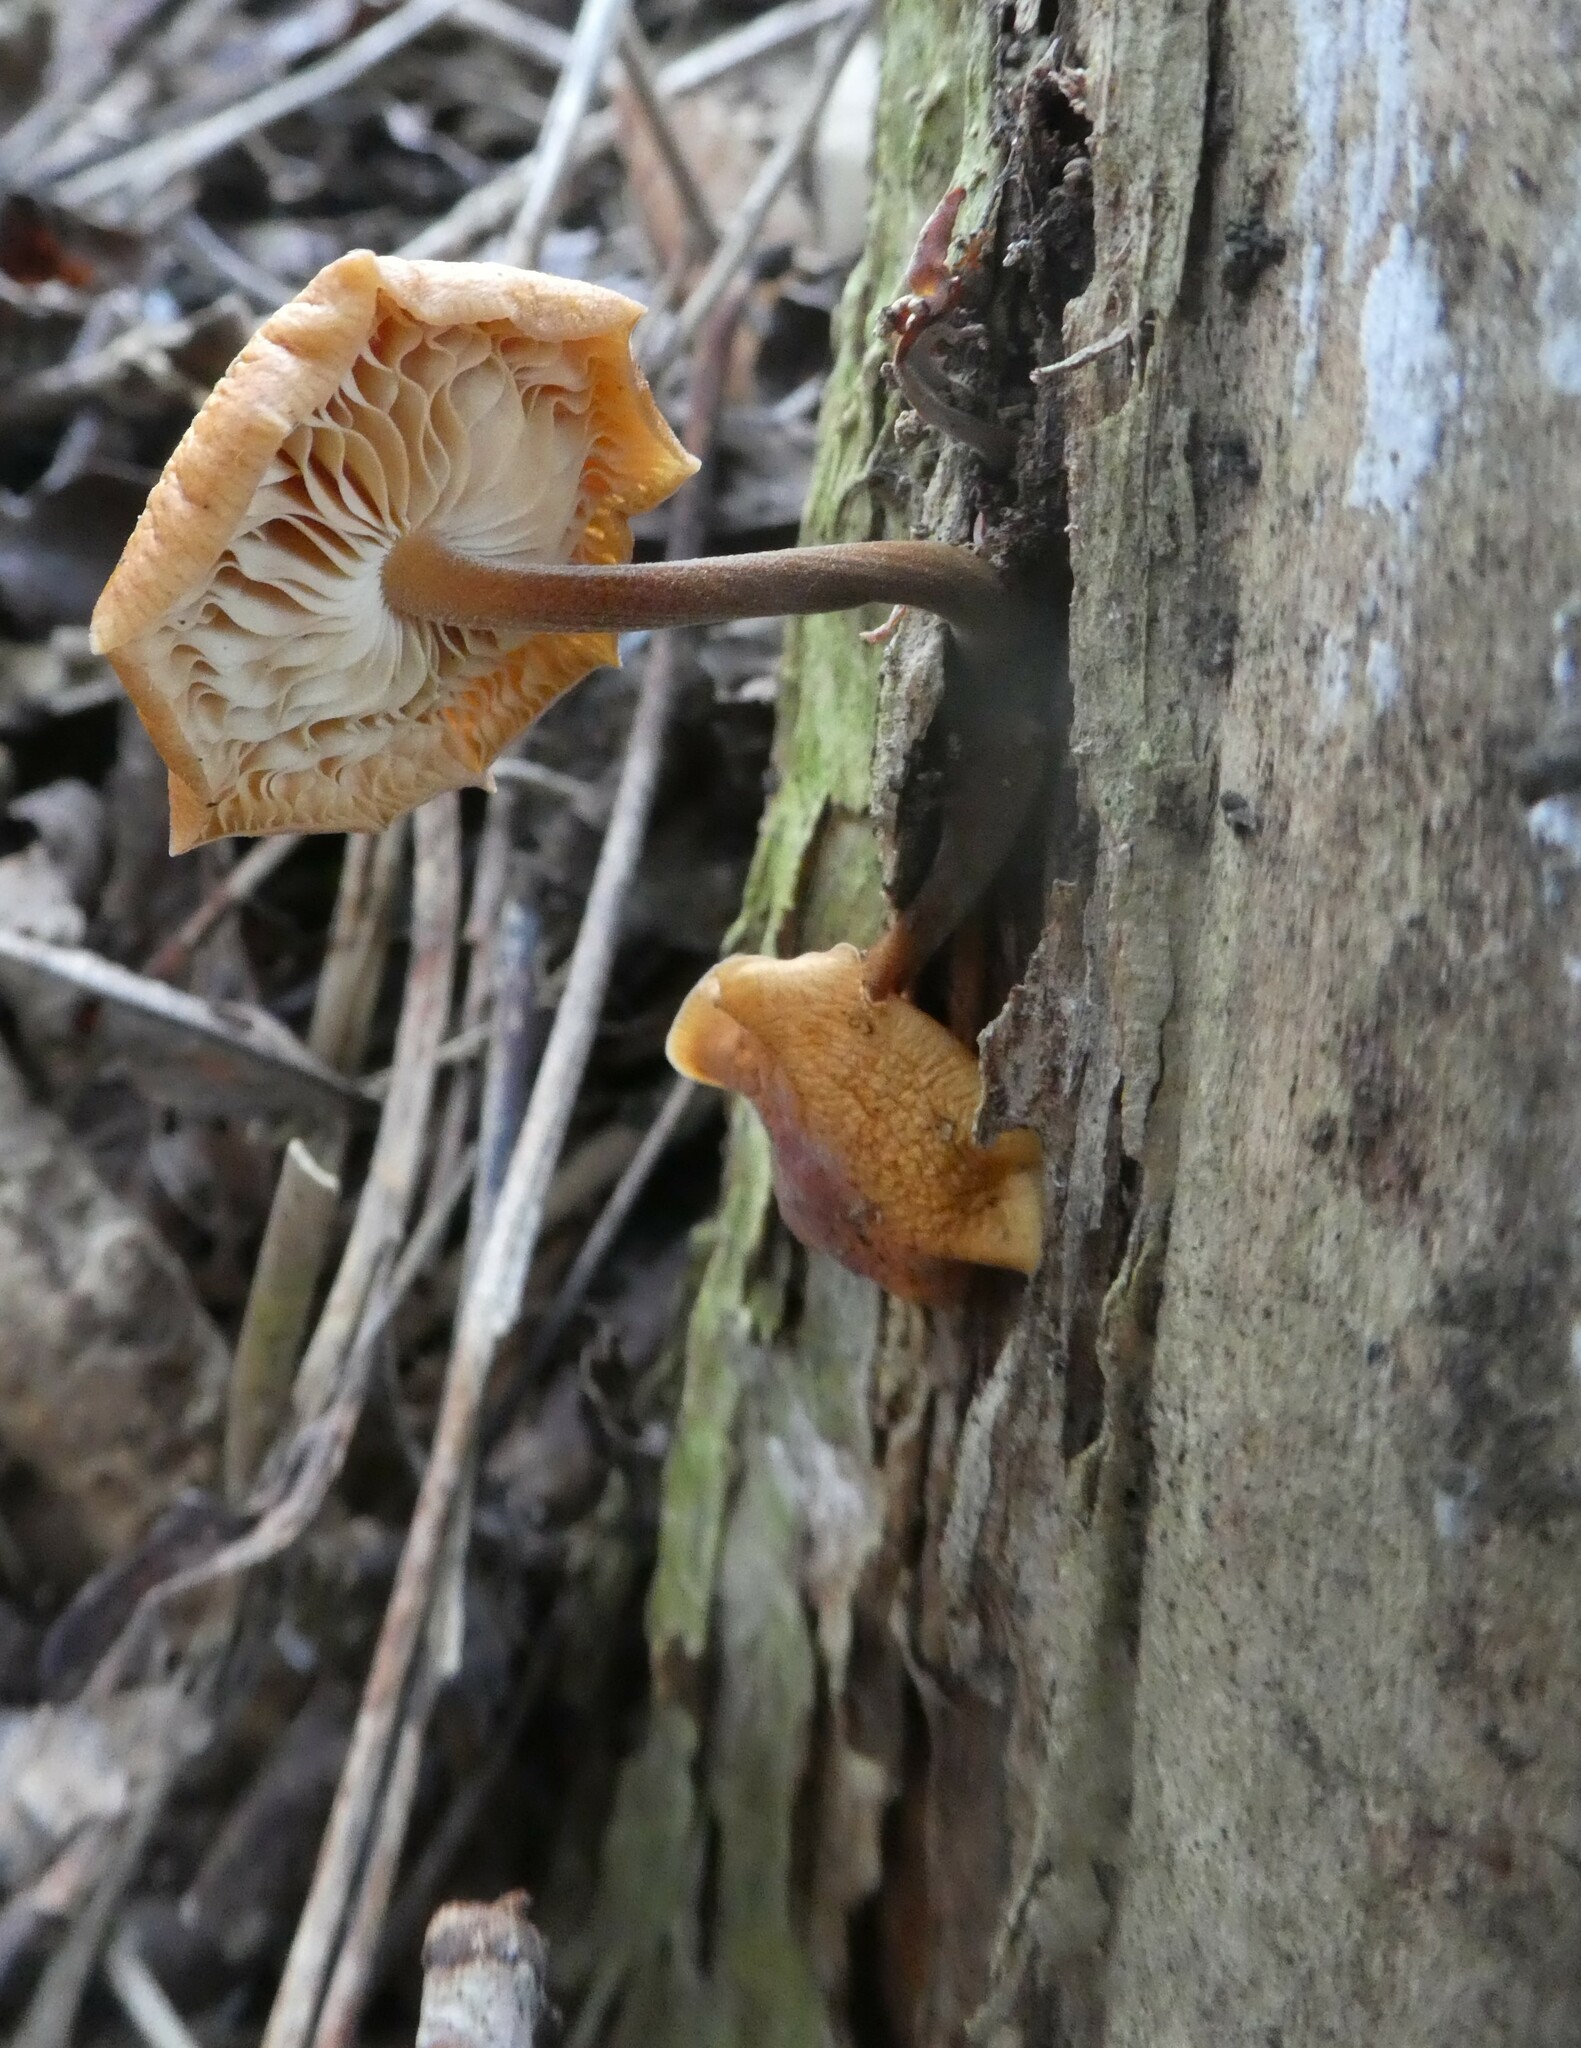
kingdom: Fungi
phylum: Basidiomycota
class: Agaricomycetes
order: Agaricales
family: Physalacriaceae
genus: Flammulina
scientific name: Flammulina
